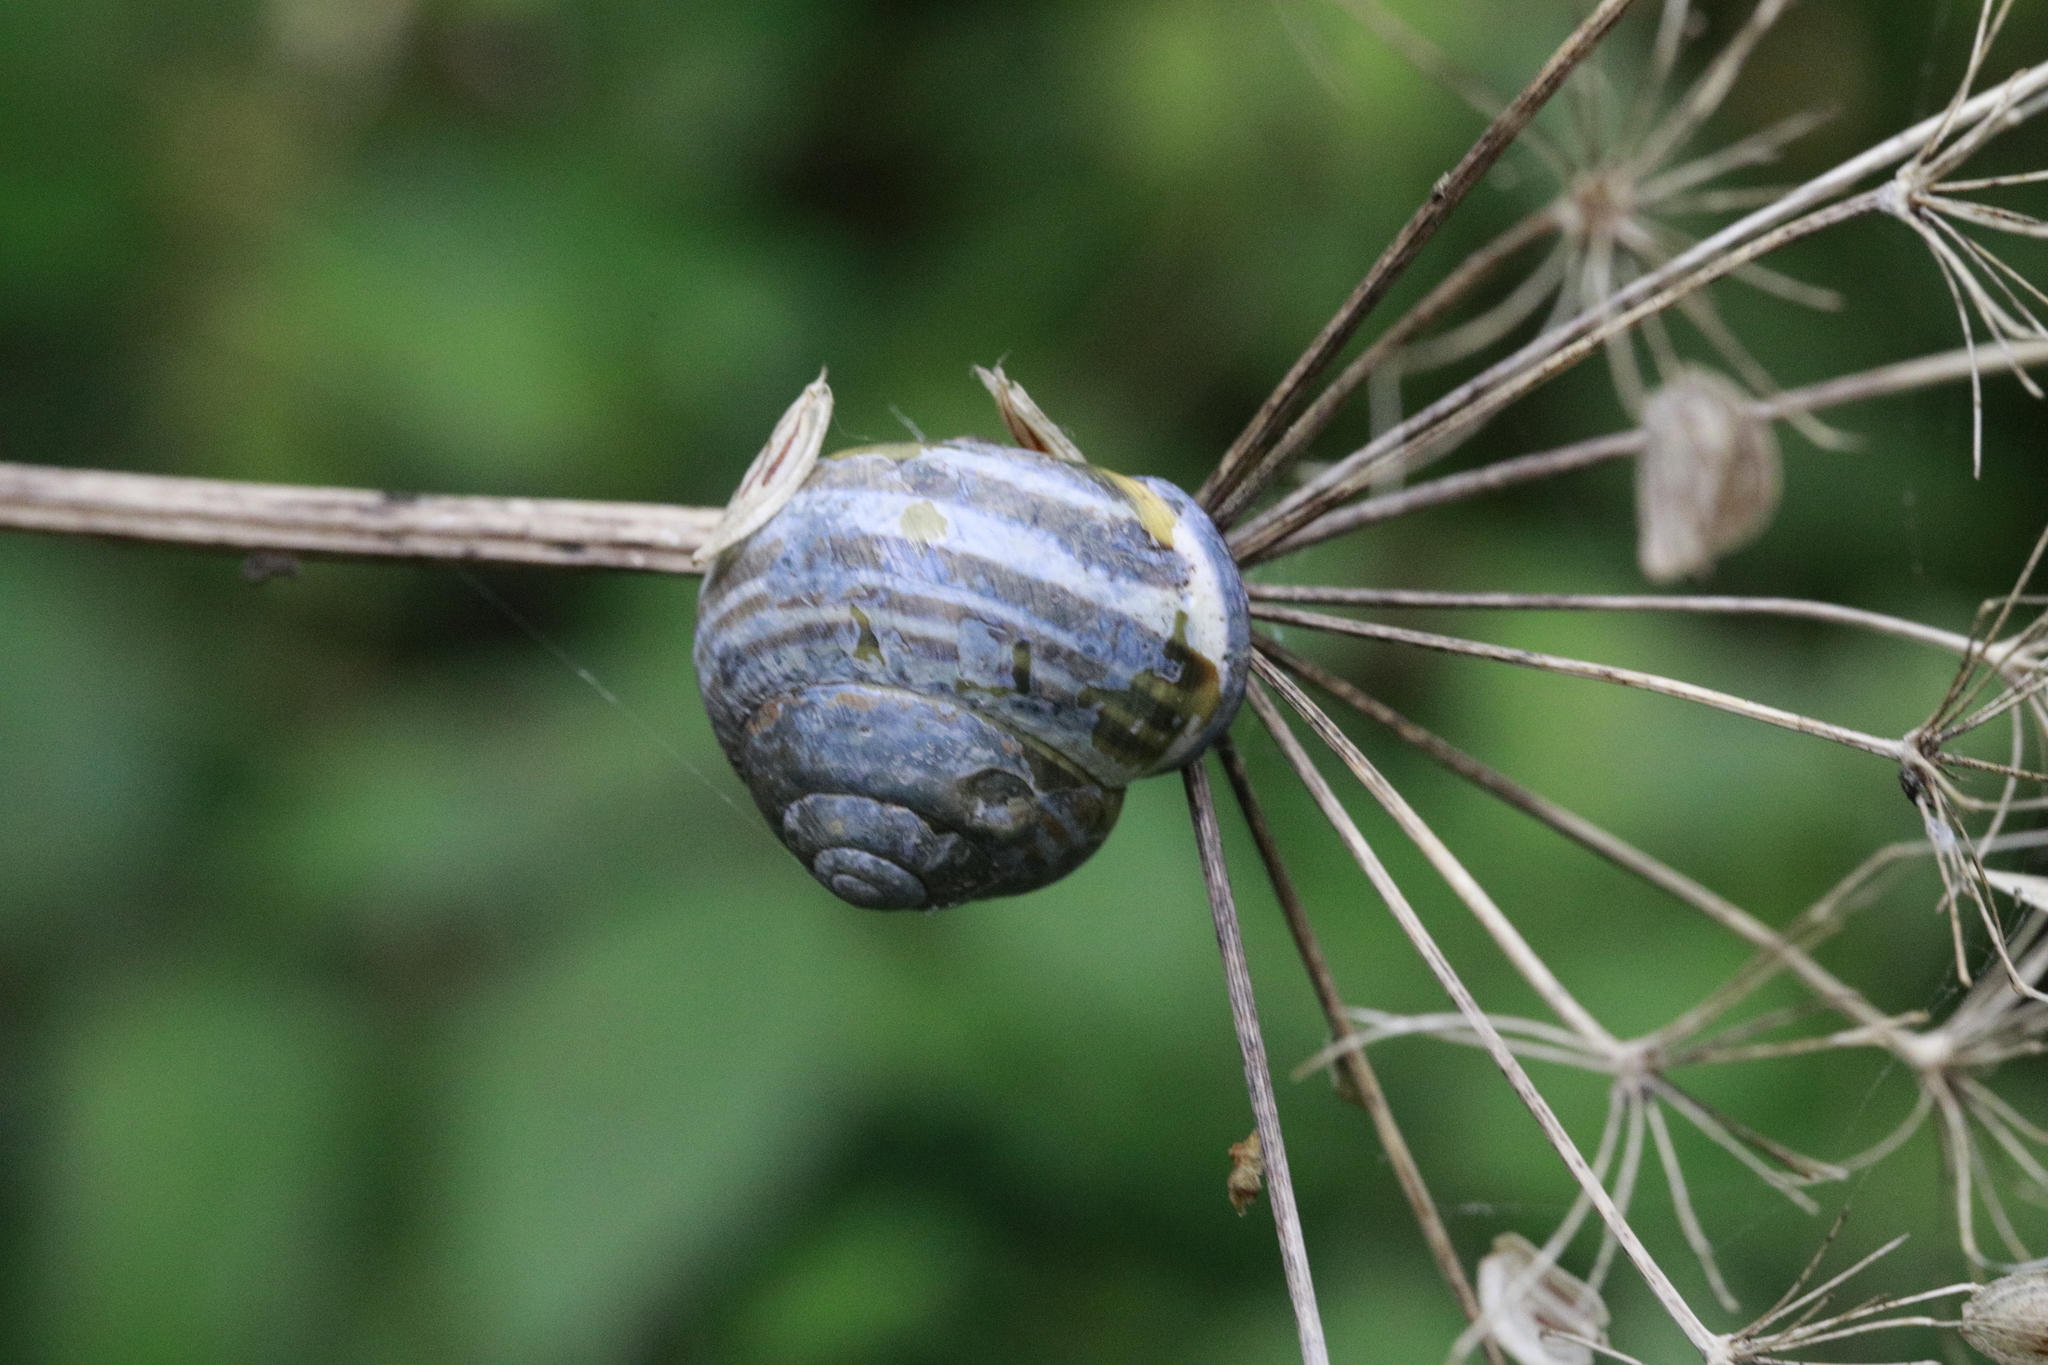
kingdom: Animalia
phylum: Mollusca
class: Gastropoda
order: Stylommatophora
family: Helicidae
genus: Cepaea
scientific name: Cepaea nemoralis
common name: Grovesnail
